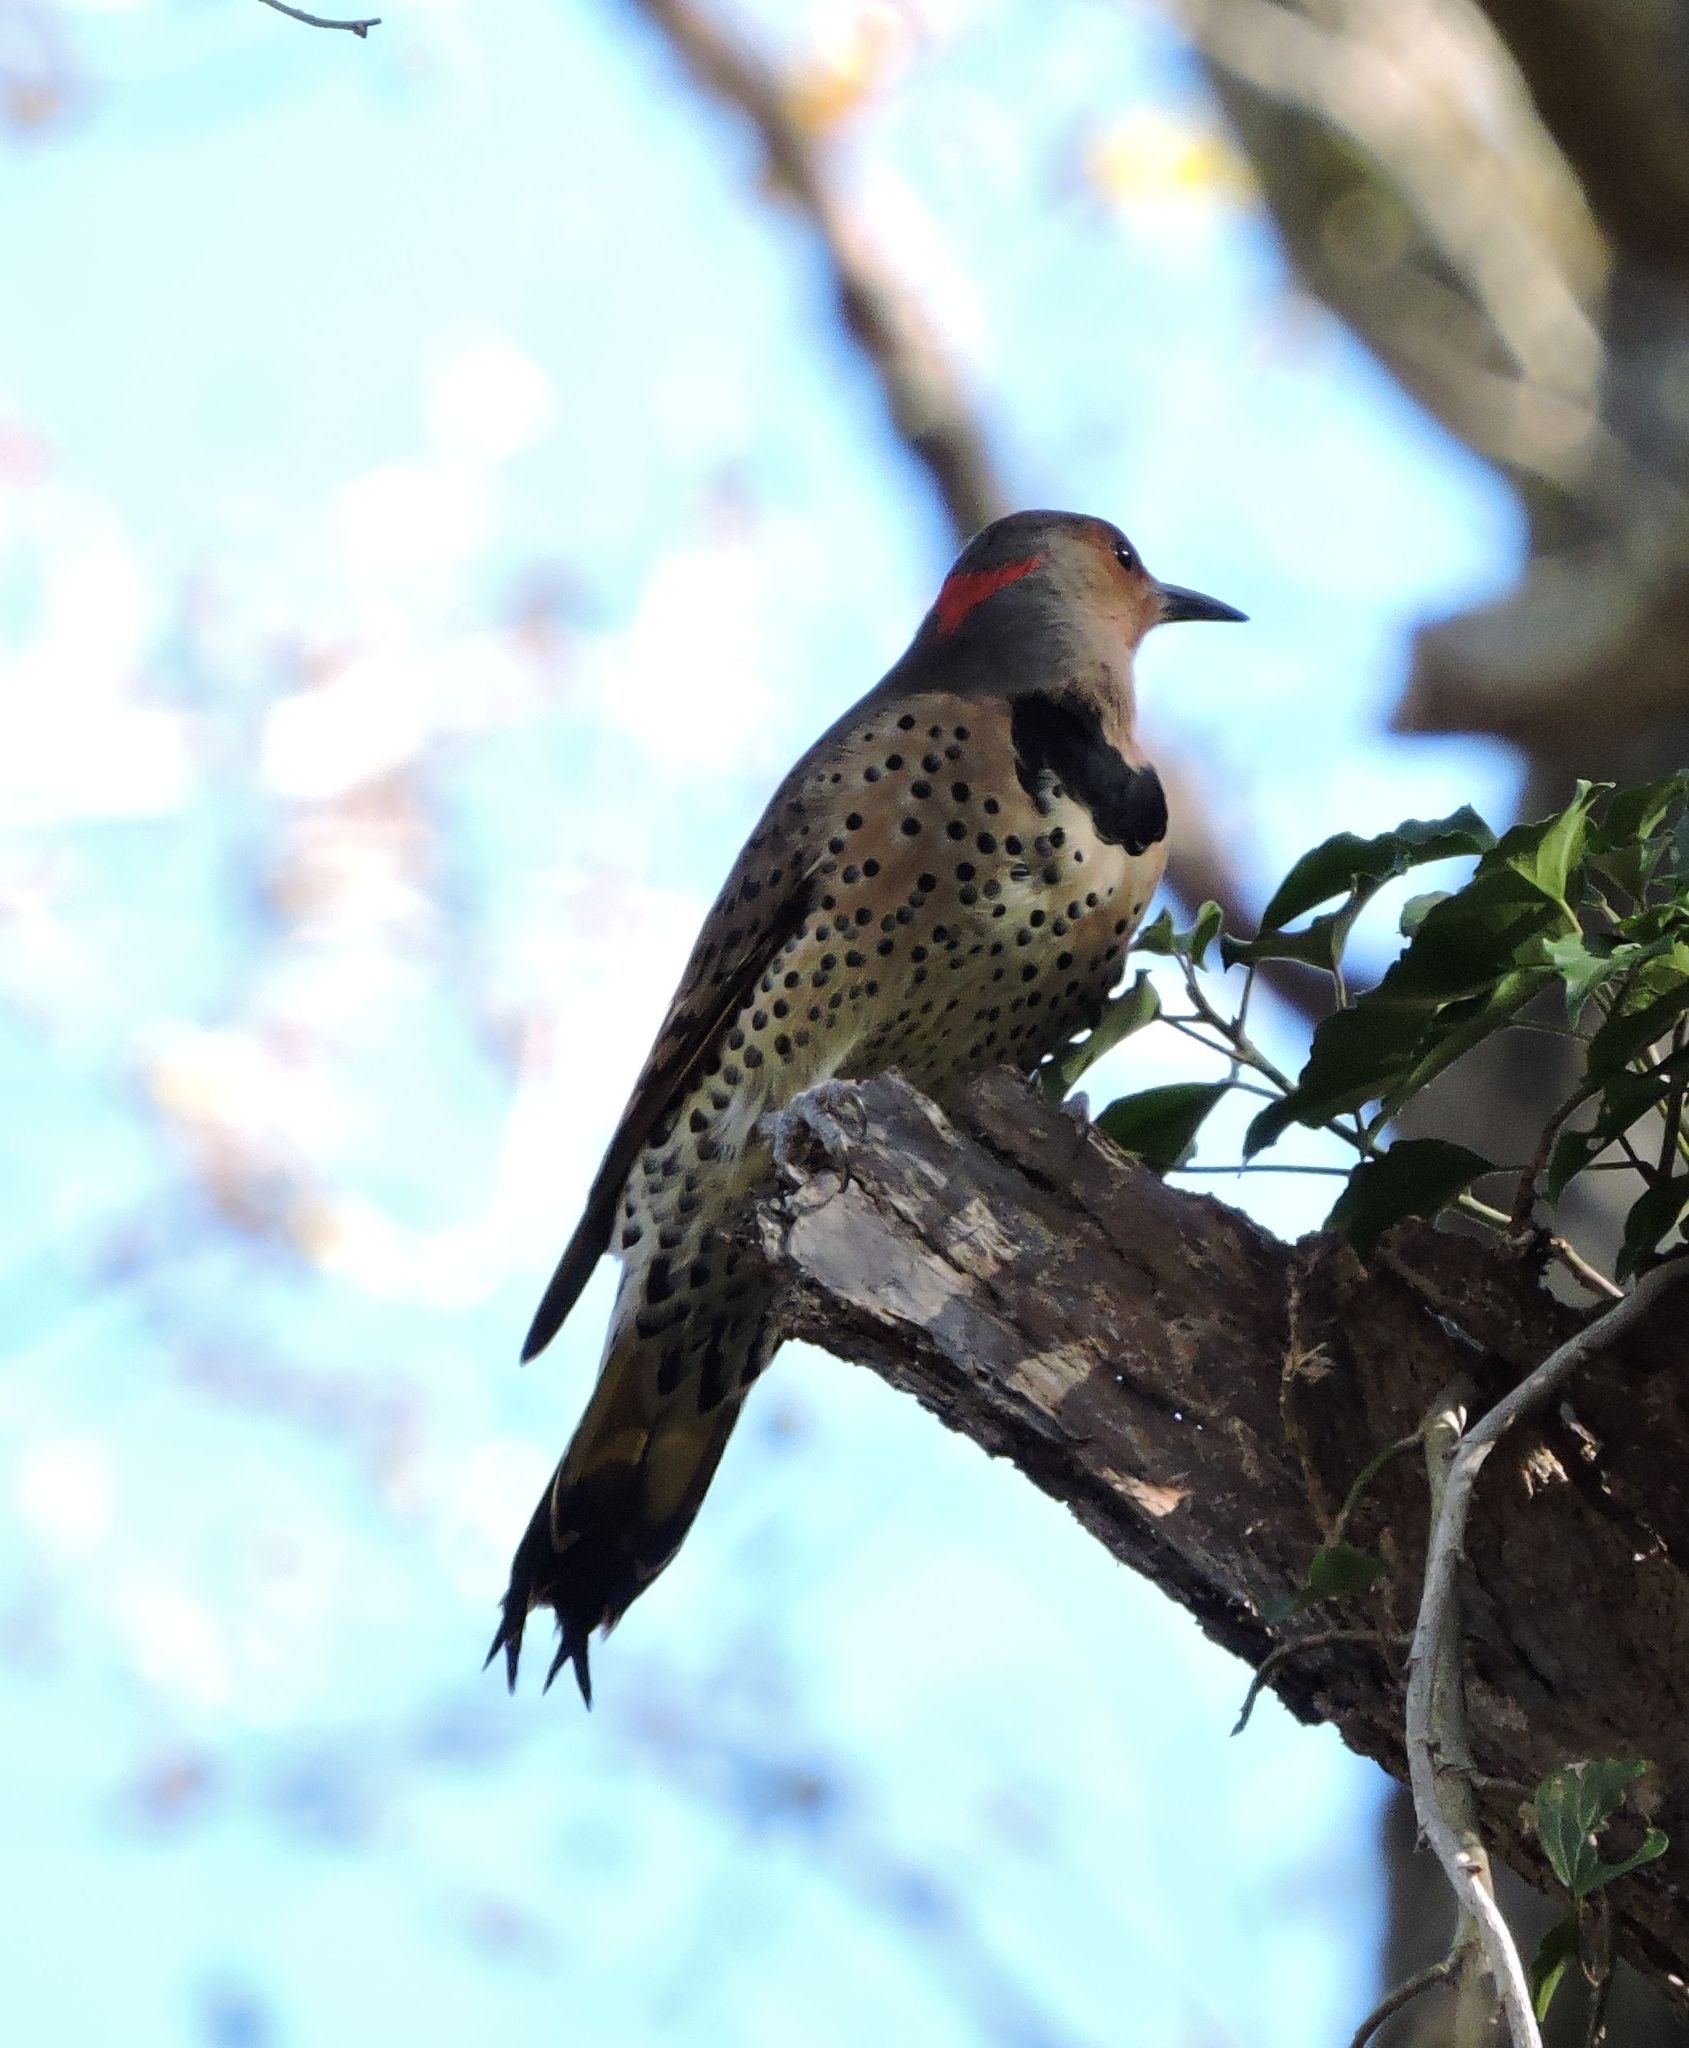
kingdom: Animalia
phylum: Chordata
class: Aves
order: Piciformes
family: Picidae
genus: Colaptes
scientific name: Colaptes auratus
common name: Northern flicker
